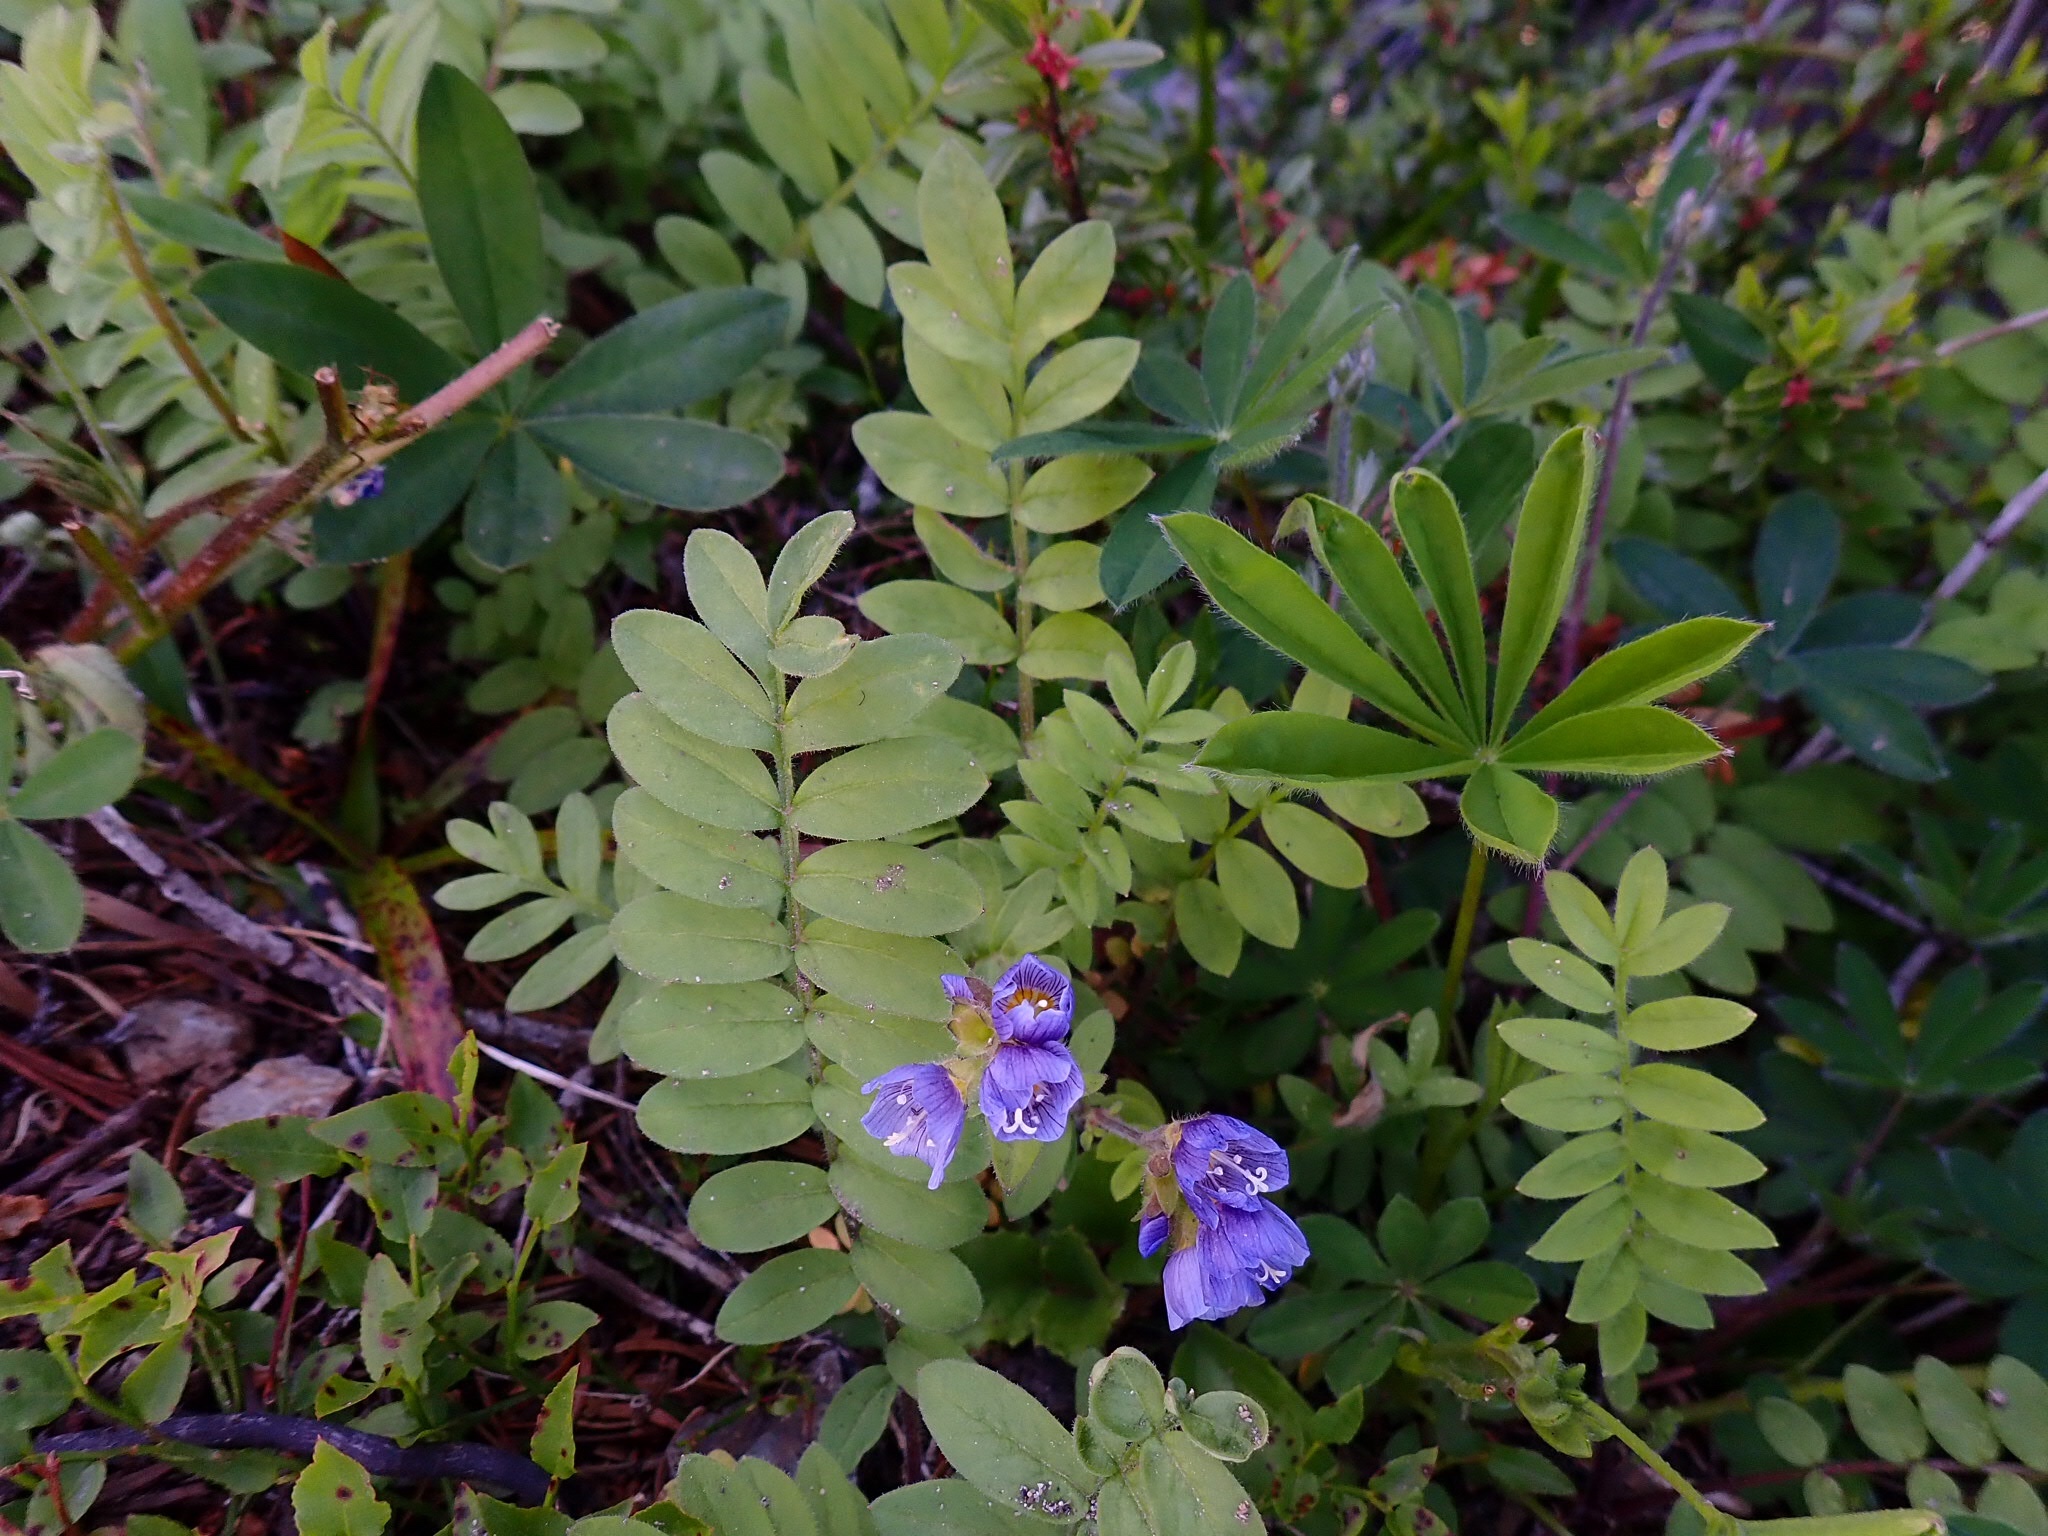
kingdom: Plantae
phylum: Tracheophyta
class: Magnoliopsida
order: Ericales
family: Polemoniaceae
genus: Polemonium
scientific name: Polemonium californicum
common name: California jacob's ladder
